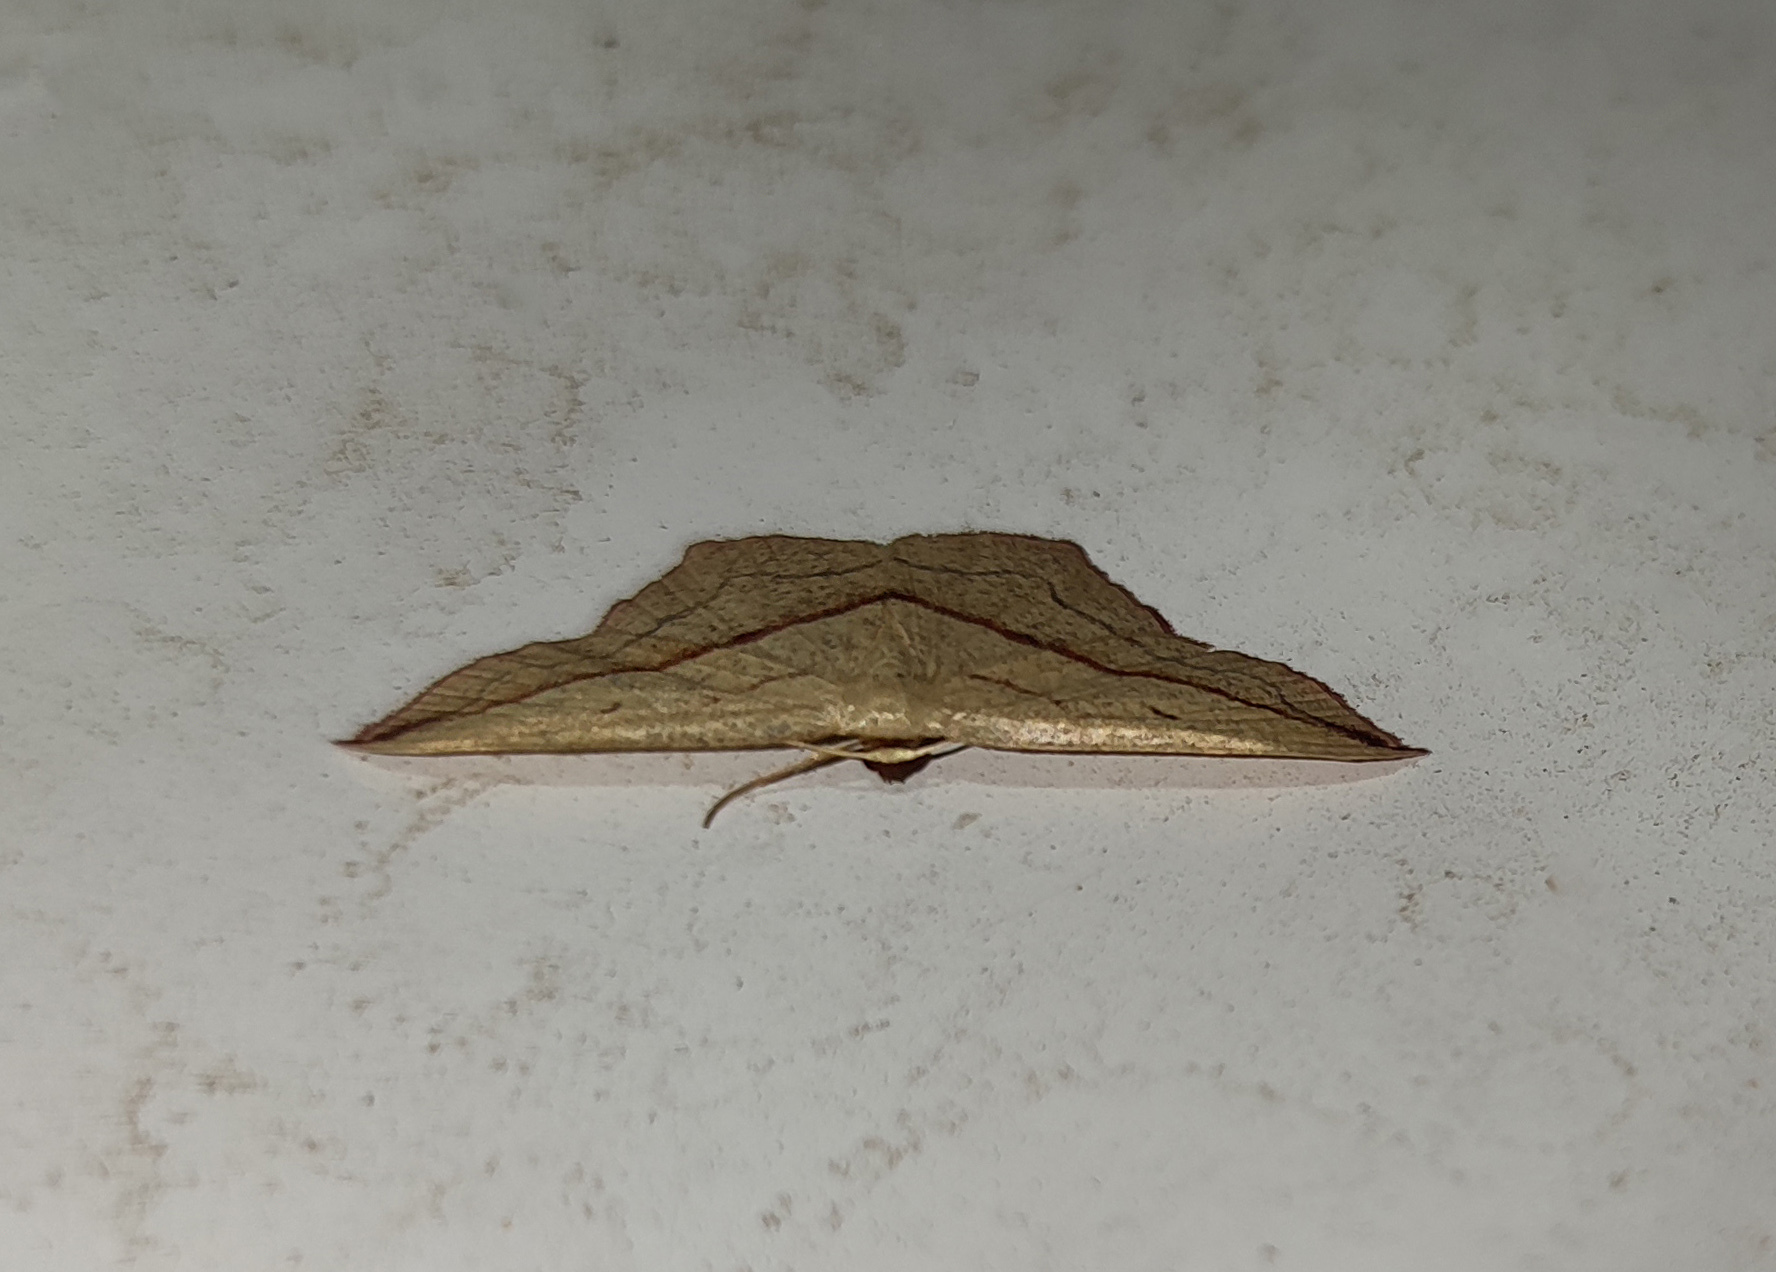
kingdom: Animalia
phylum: Arthropoda
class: Insecta
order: Lepidoptera
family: Geometridae
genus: Timandra
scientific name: Timandra comae
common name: Blood-vein
